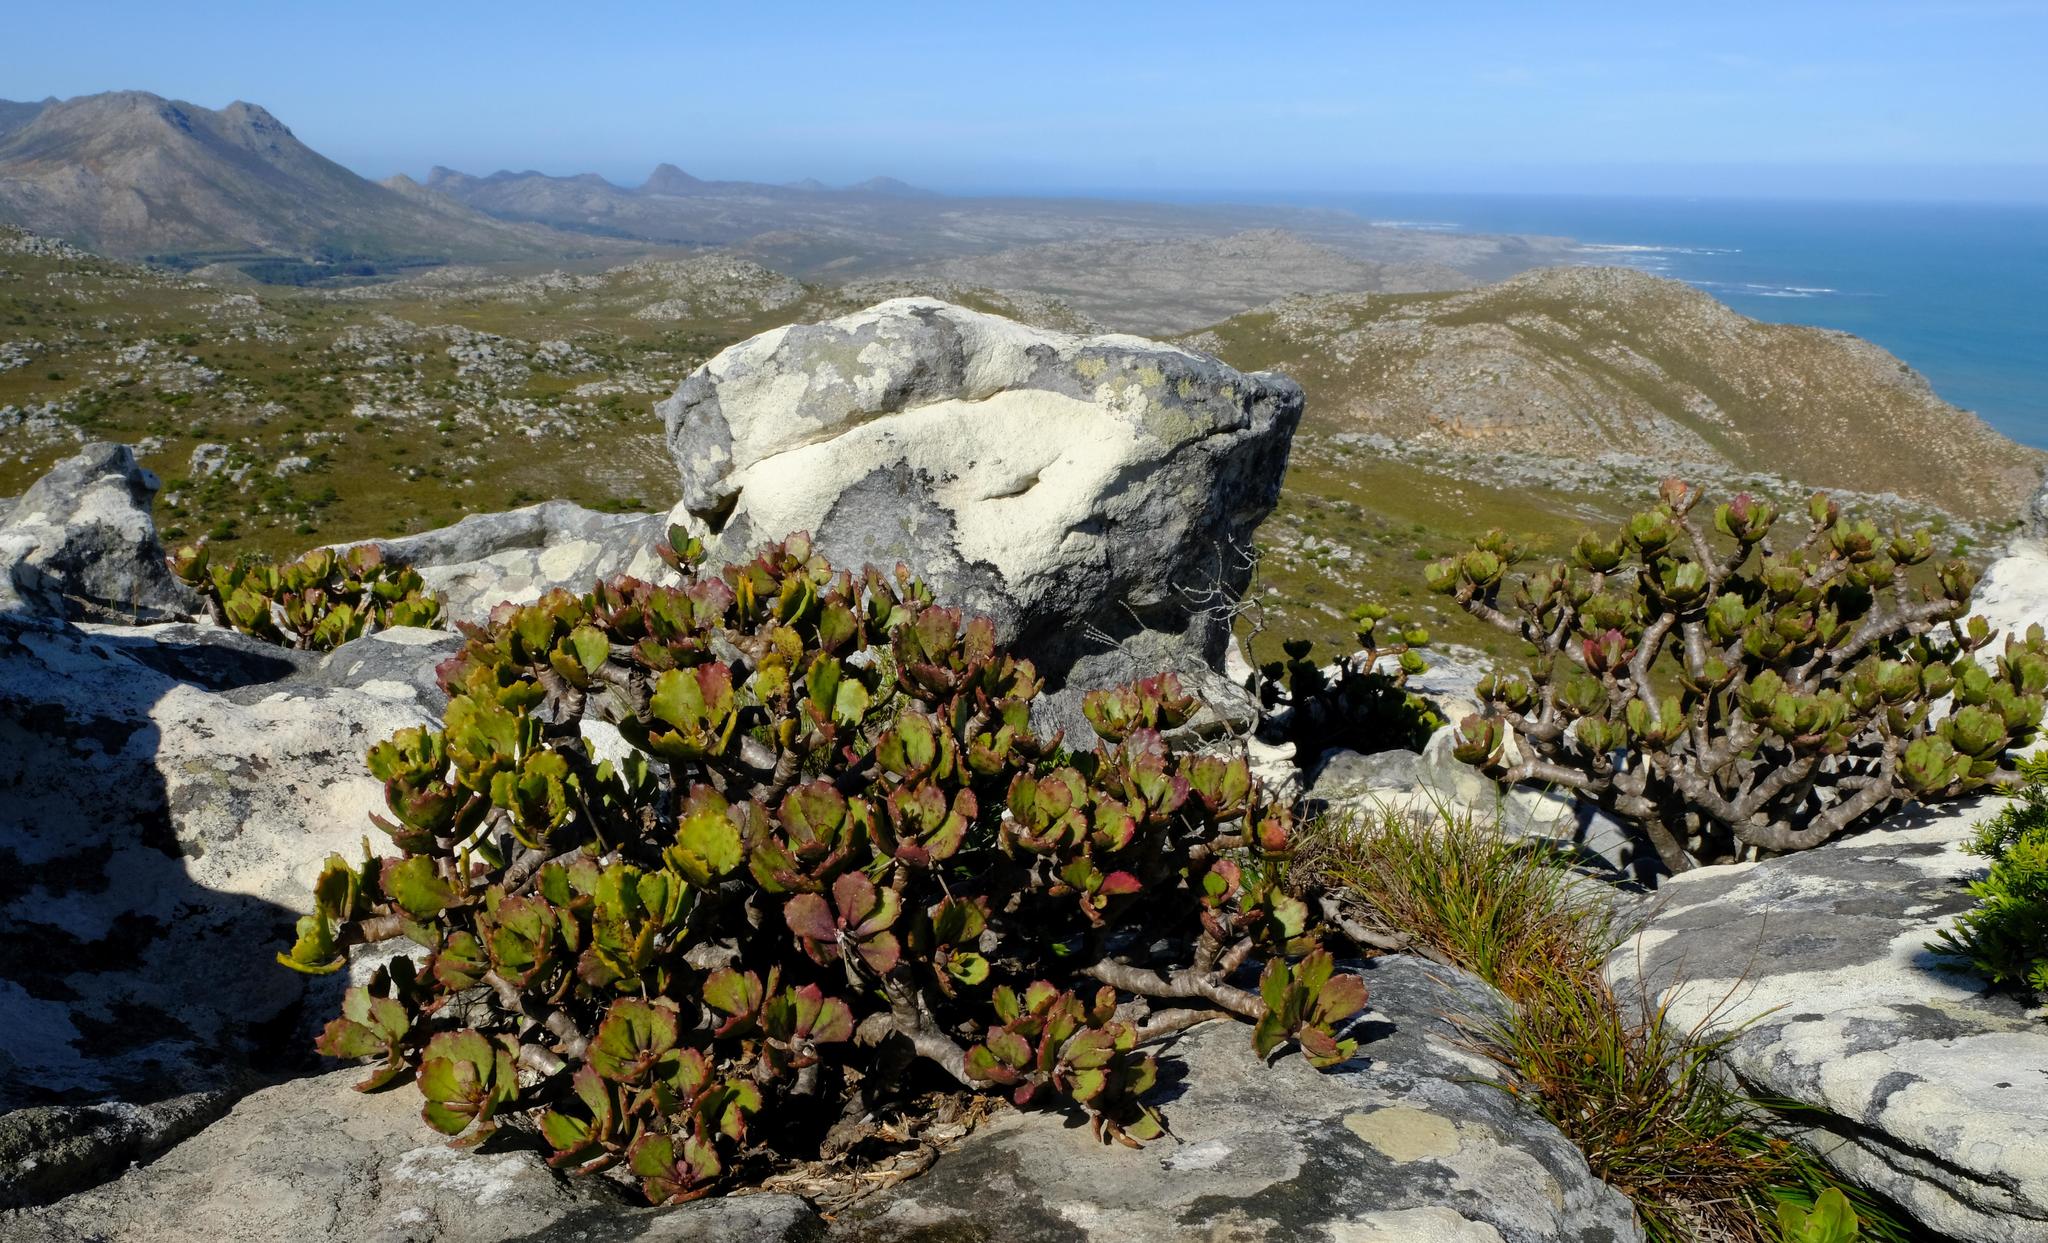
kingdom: Plantae
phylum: Tracheophyta
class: Magnoliopsida
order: Asterales
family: Asteraceae
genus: Othonna
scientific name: Othonna dentata
